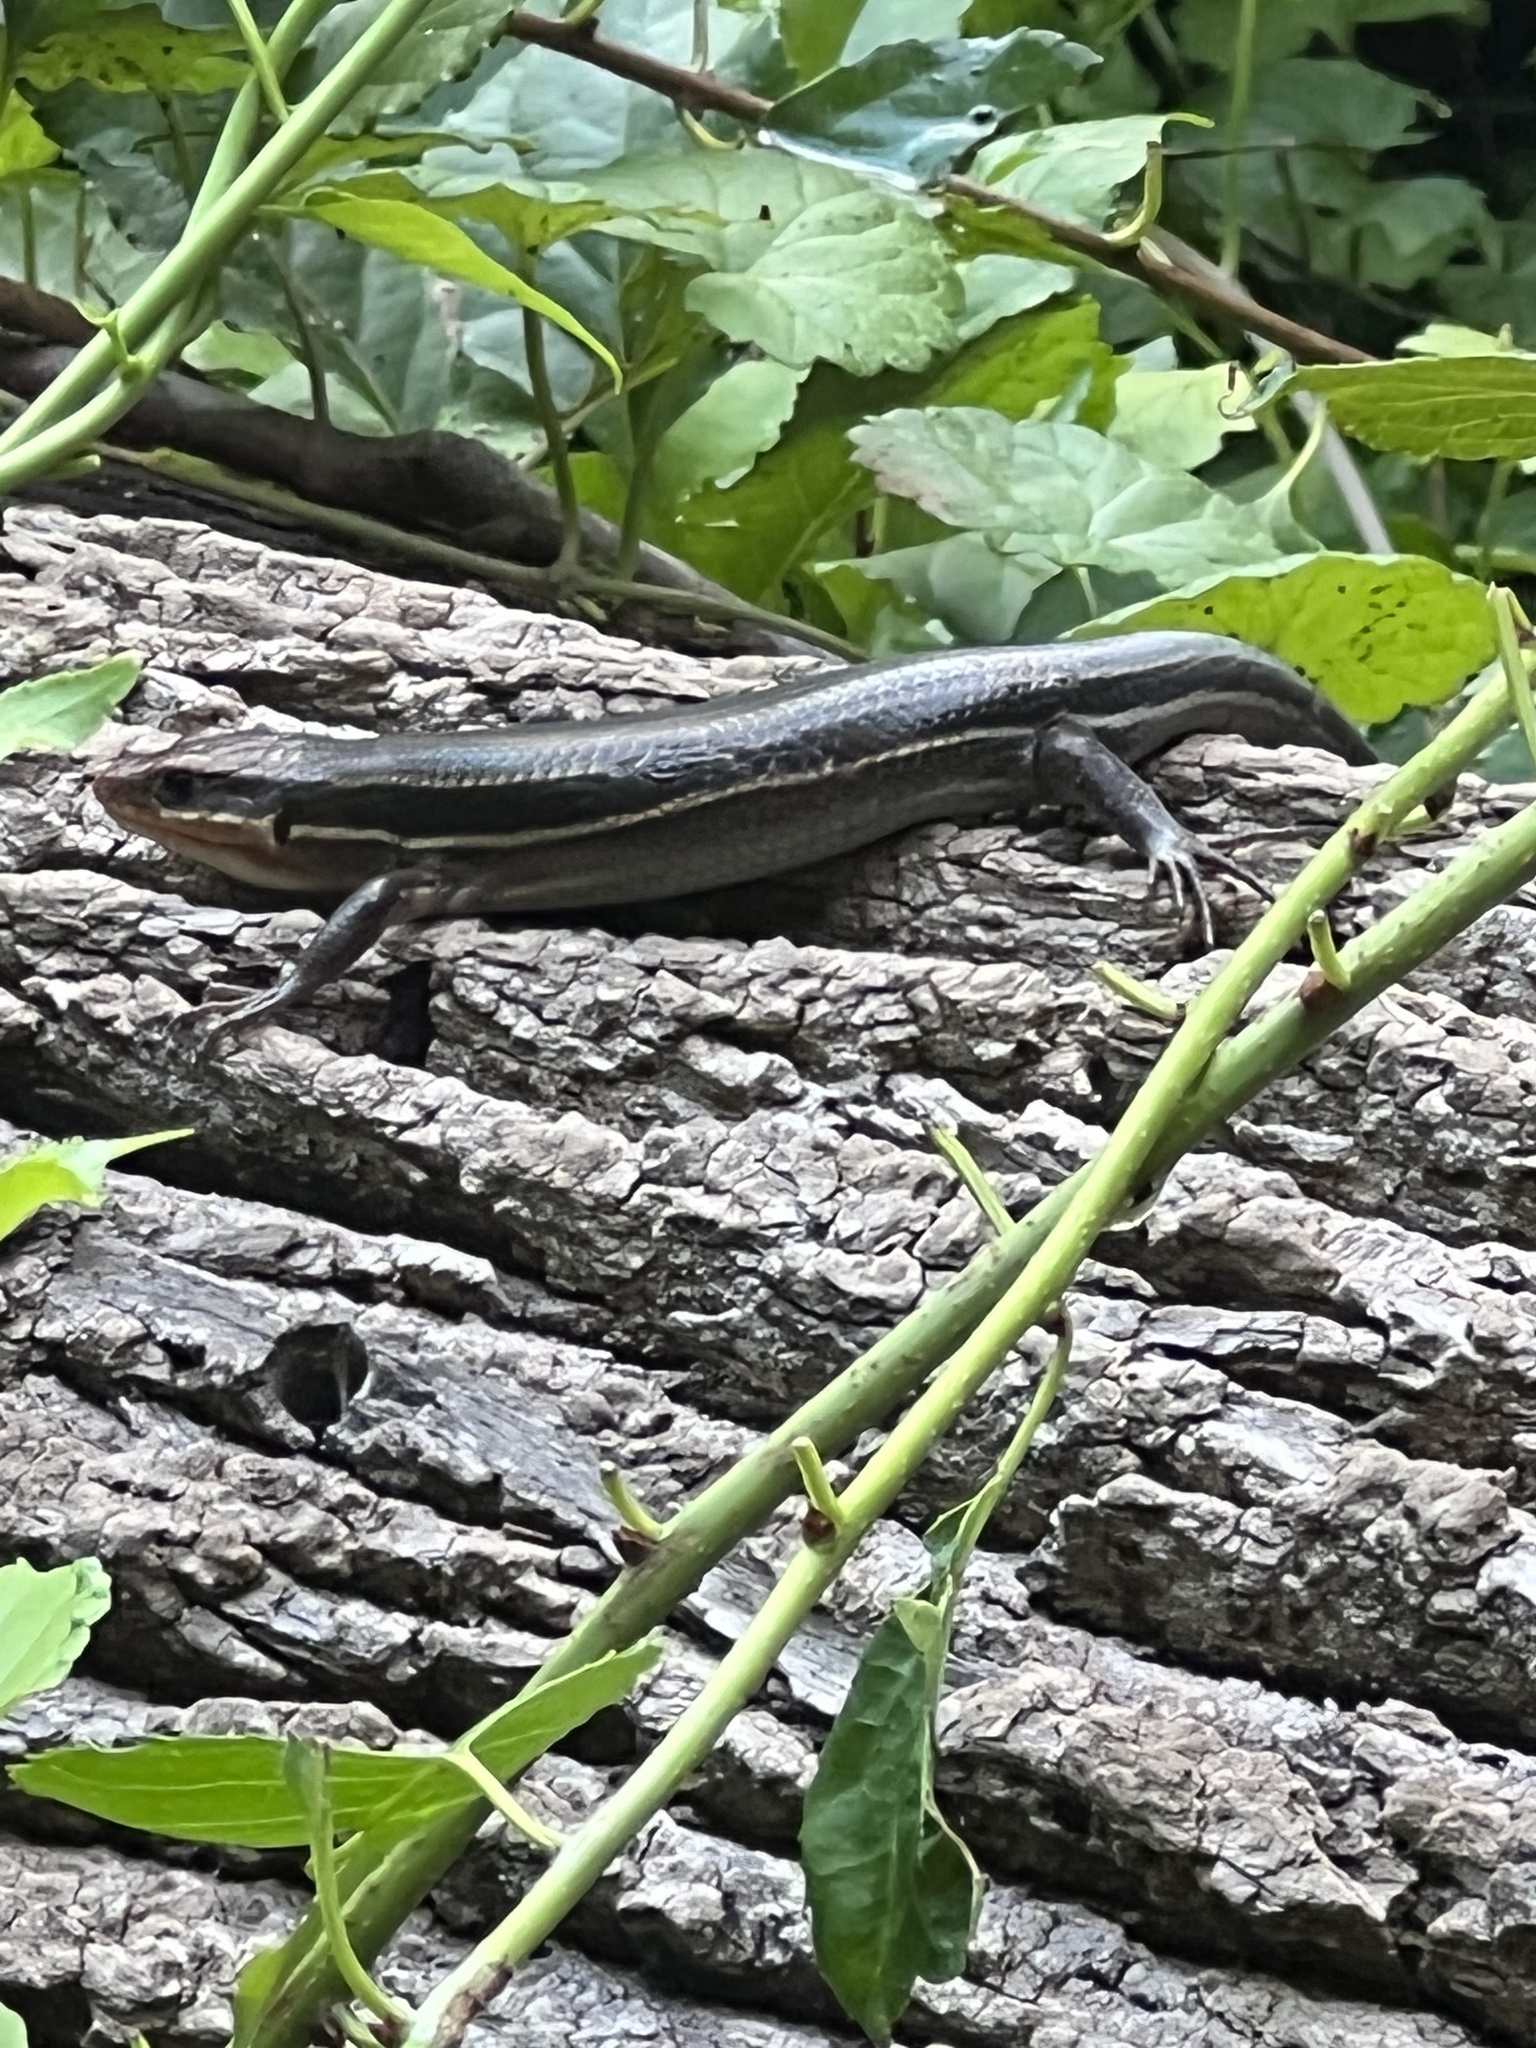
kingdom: Animalia
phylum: Chordata
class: Squamata
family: Scincidae
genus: Plestiodon
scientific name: Plestiodon laticeps
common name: Broadhead skink
